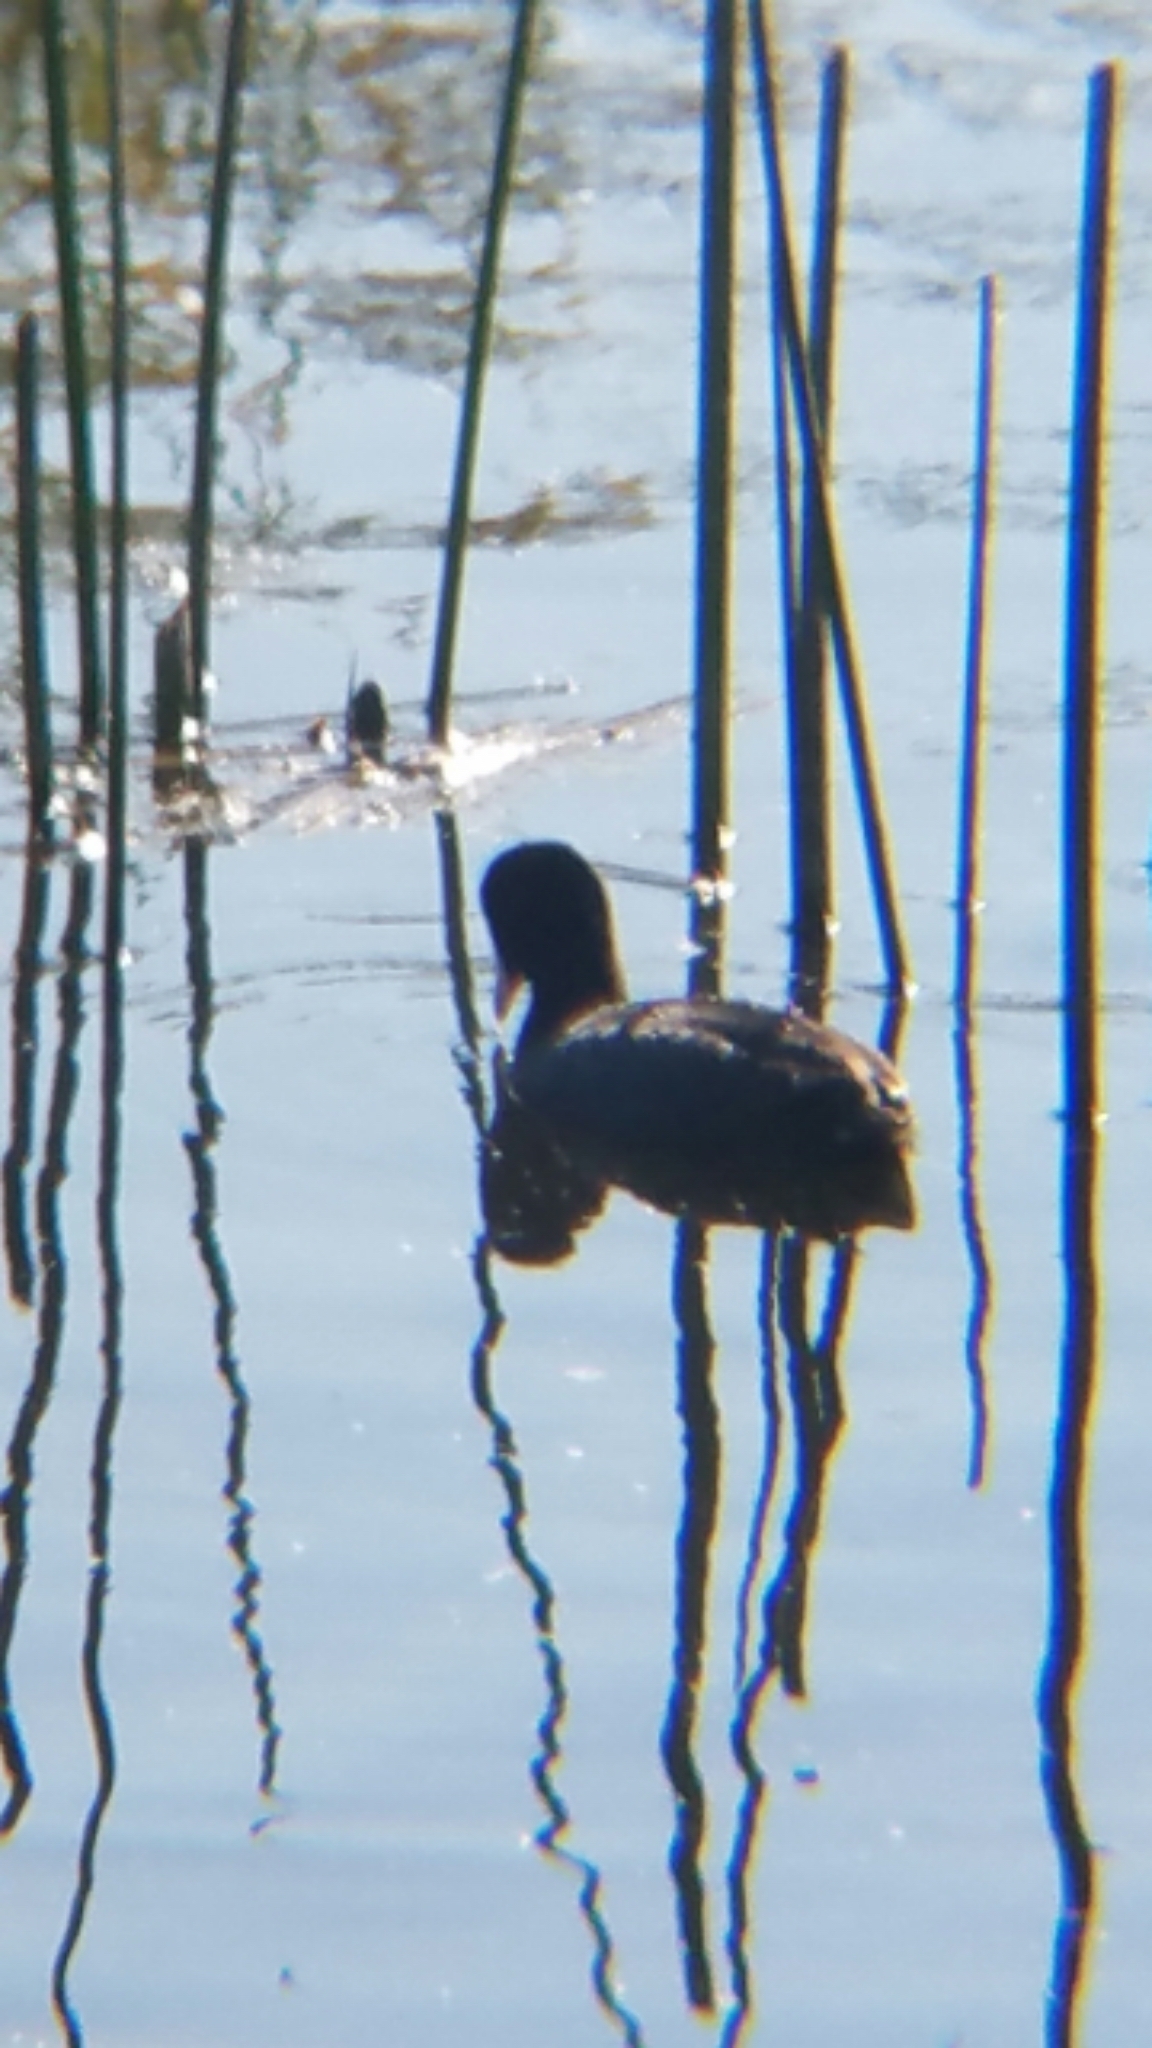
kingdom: Animalia
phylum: Chordata
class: Aves
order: Gruiformes
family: Rallidae
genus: Fulica
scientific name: Fulica americana
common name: American coot
